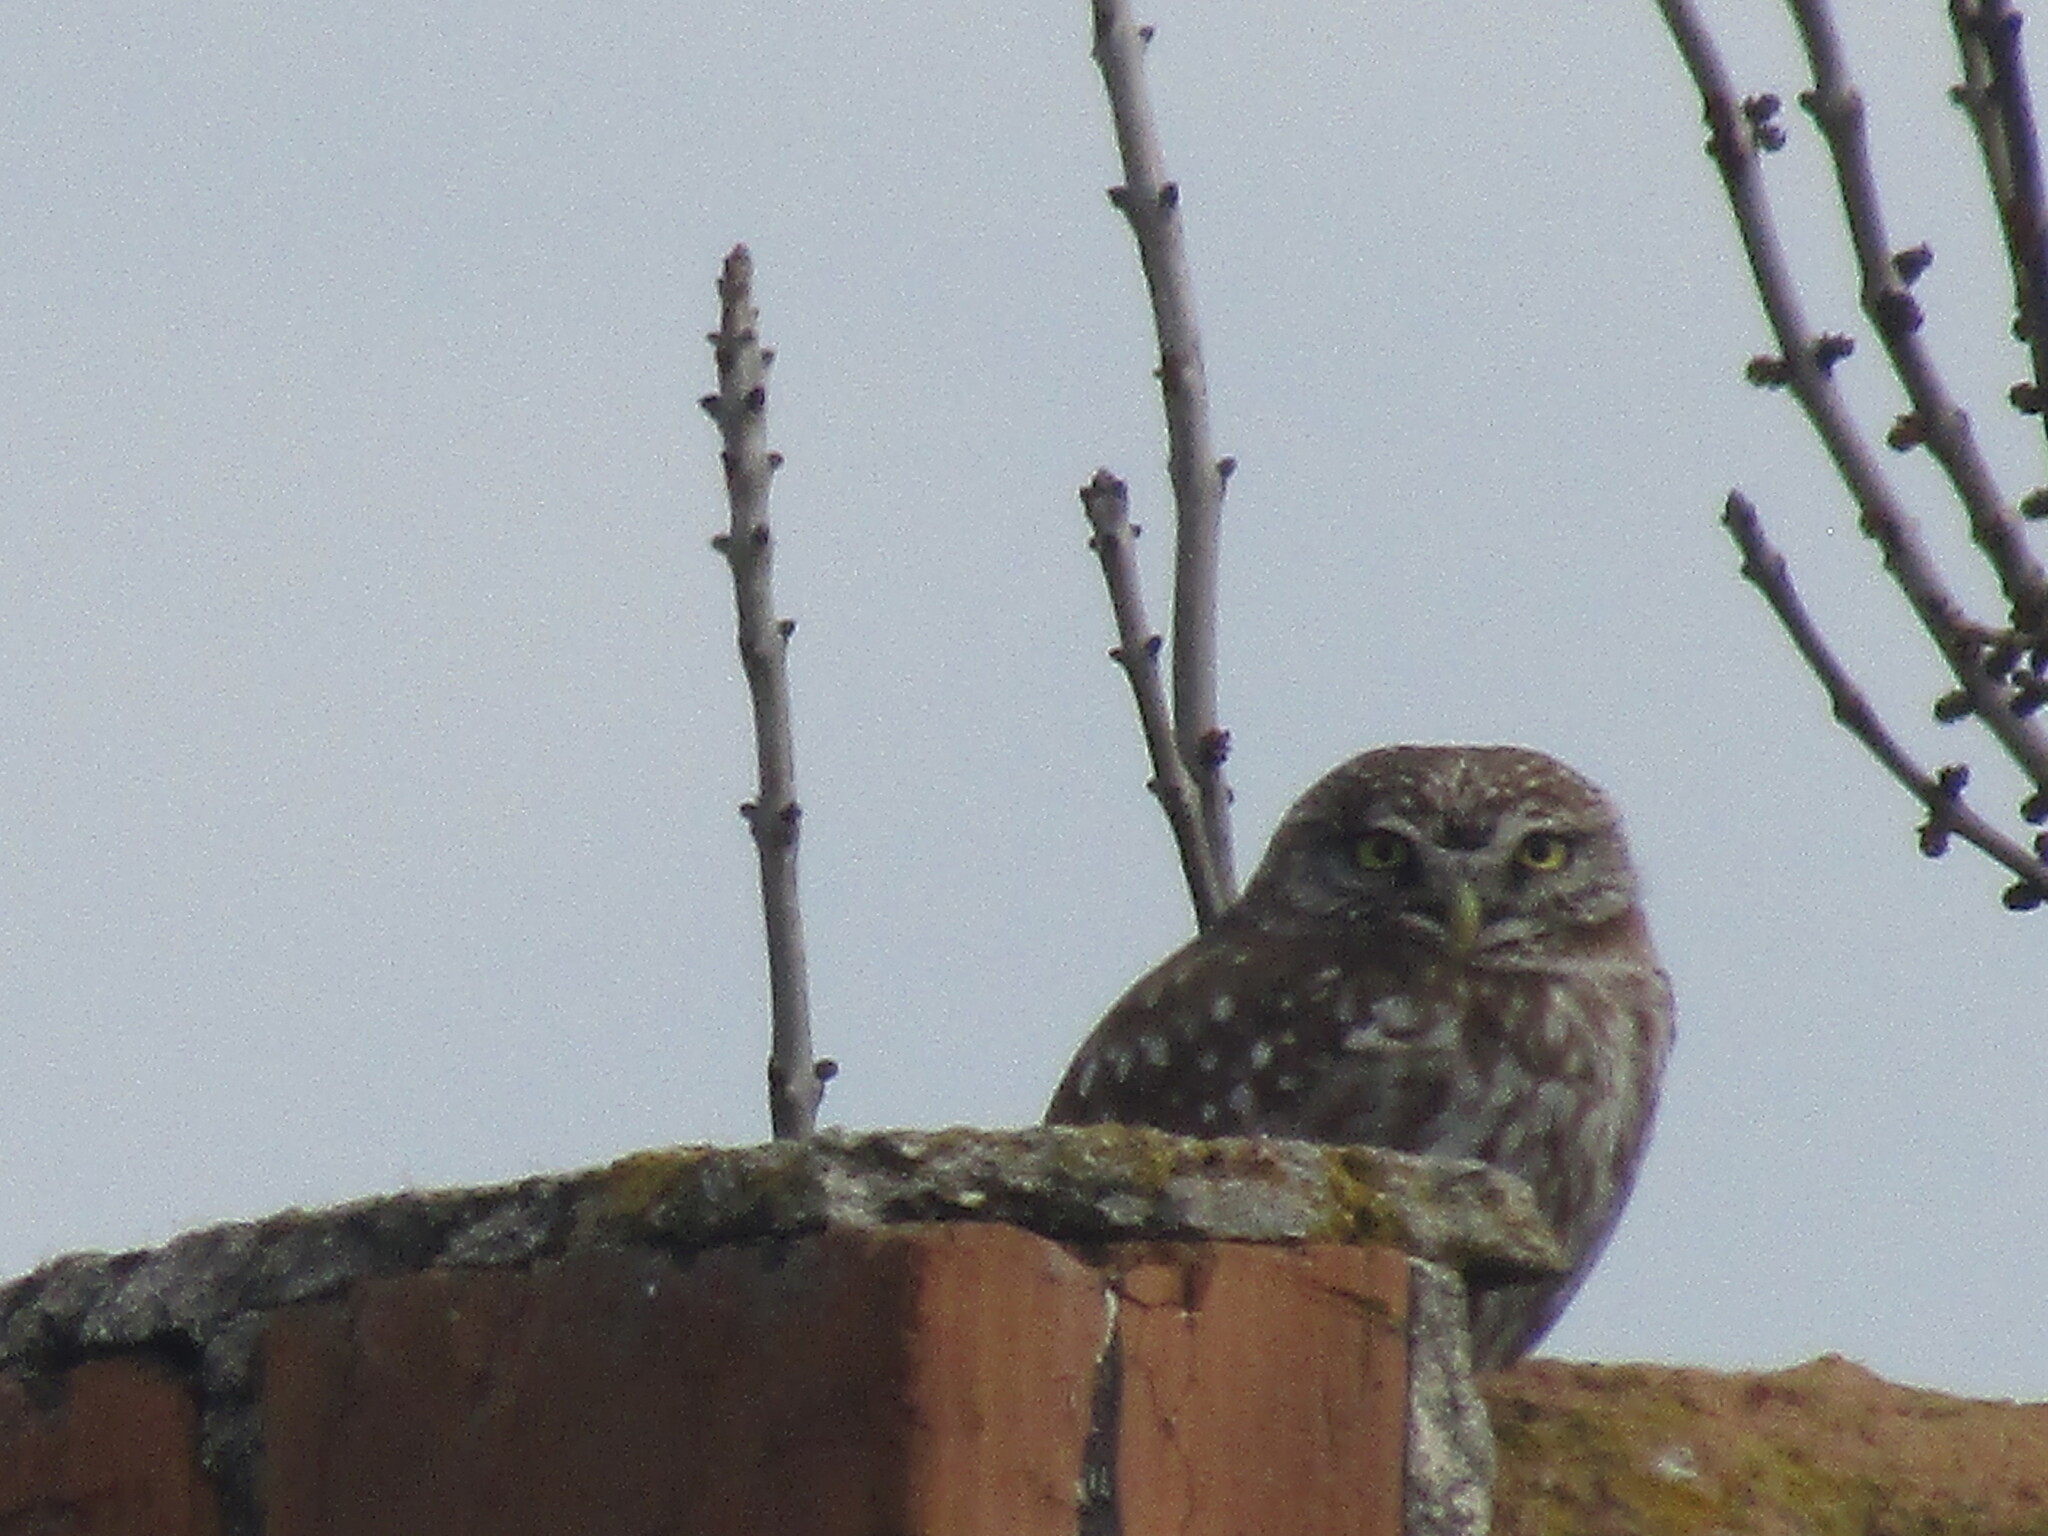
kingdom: Animalia
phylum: Chordata
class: Aves
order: Strigiformes
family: Strigidae
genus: Athene
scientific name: Athene noctua
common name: Little owl
